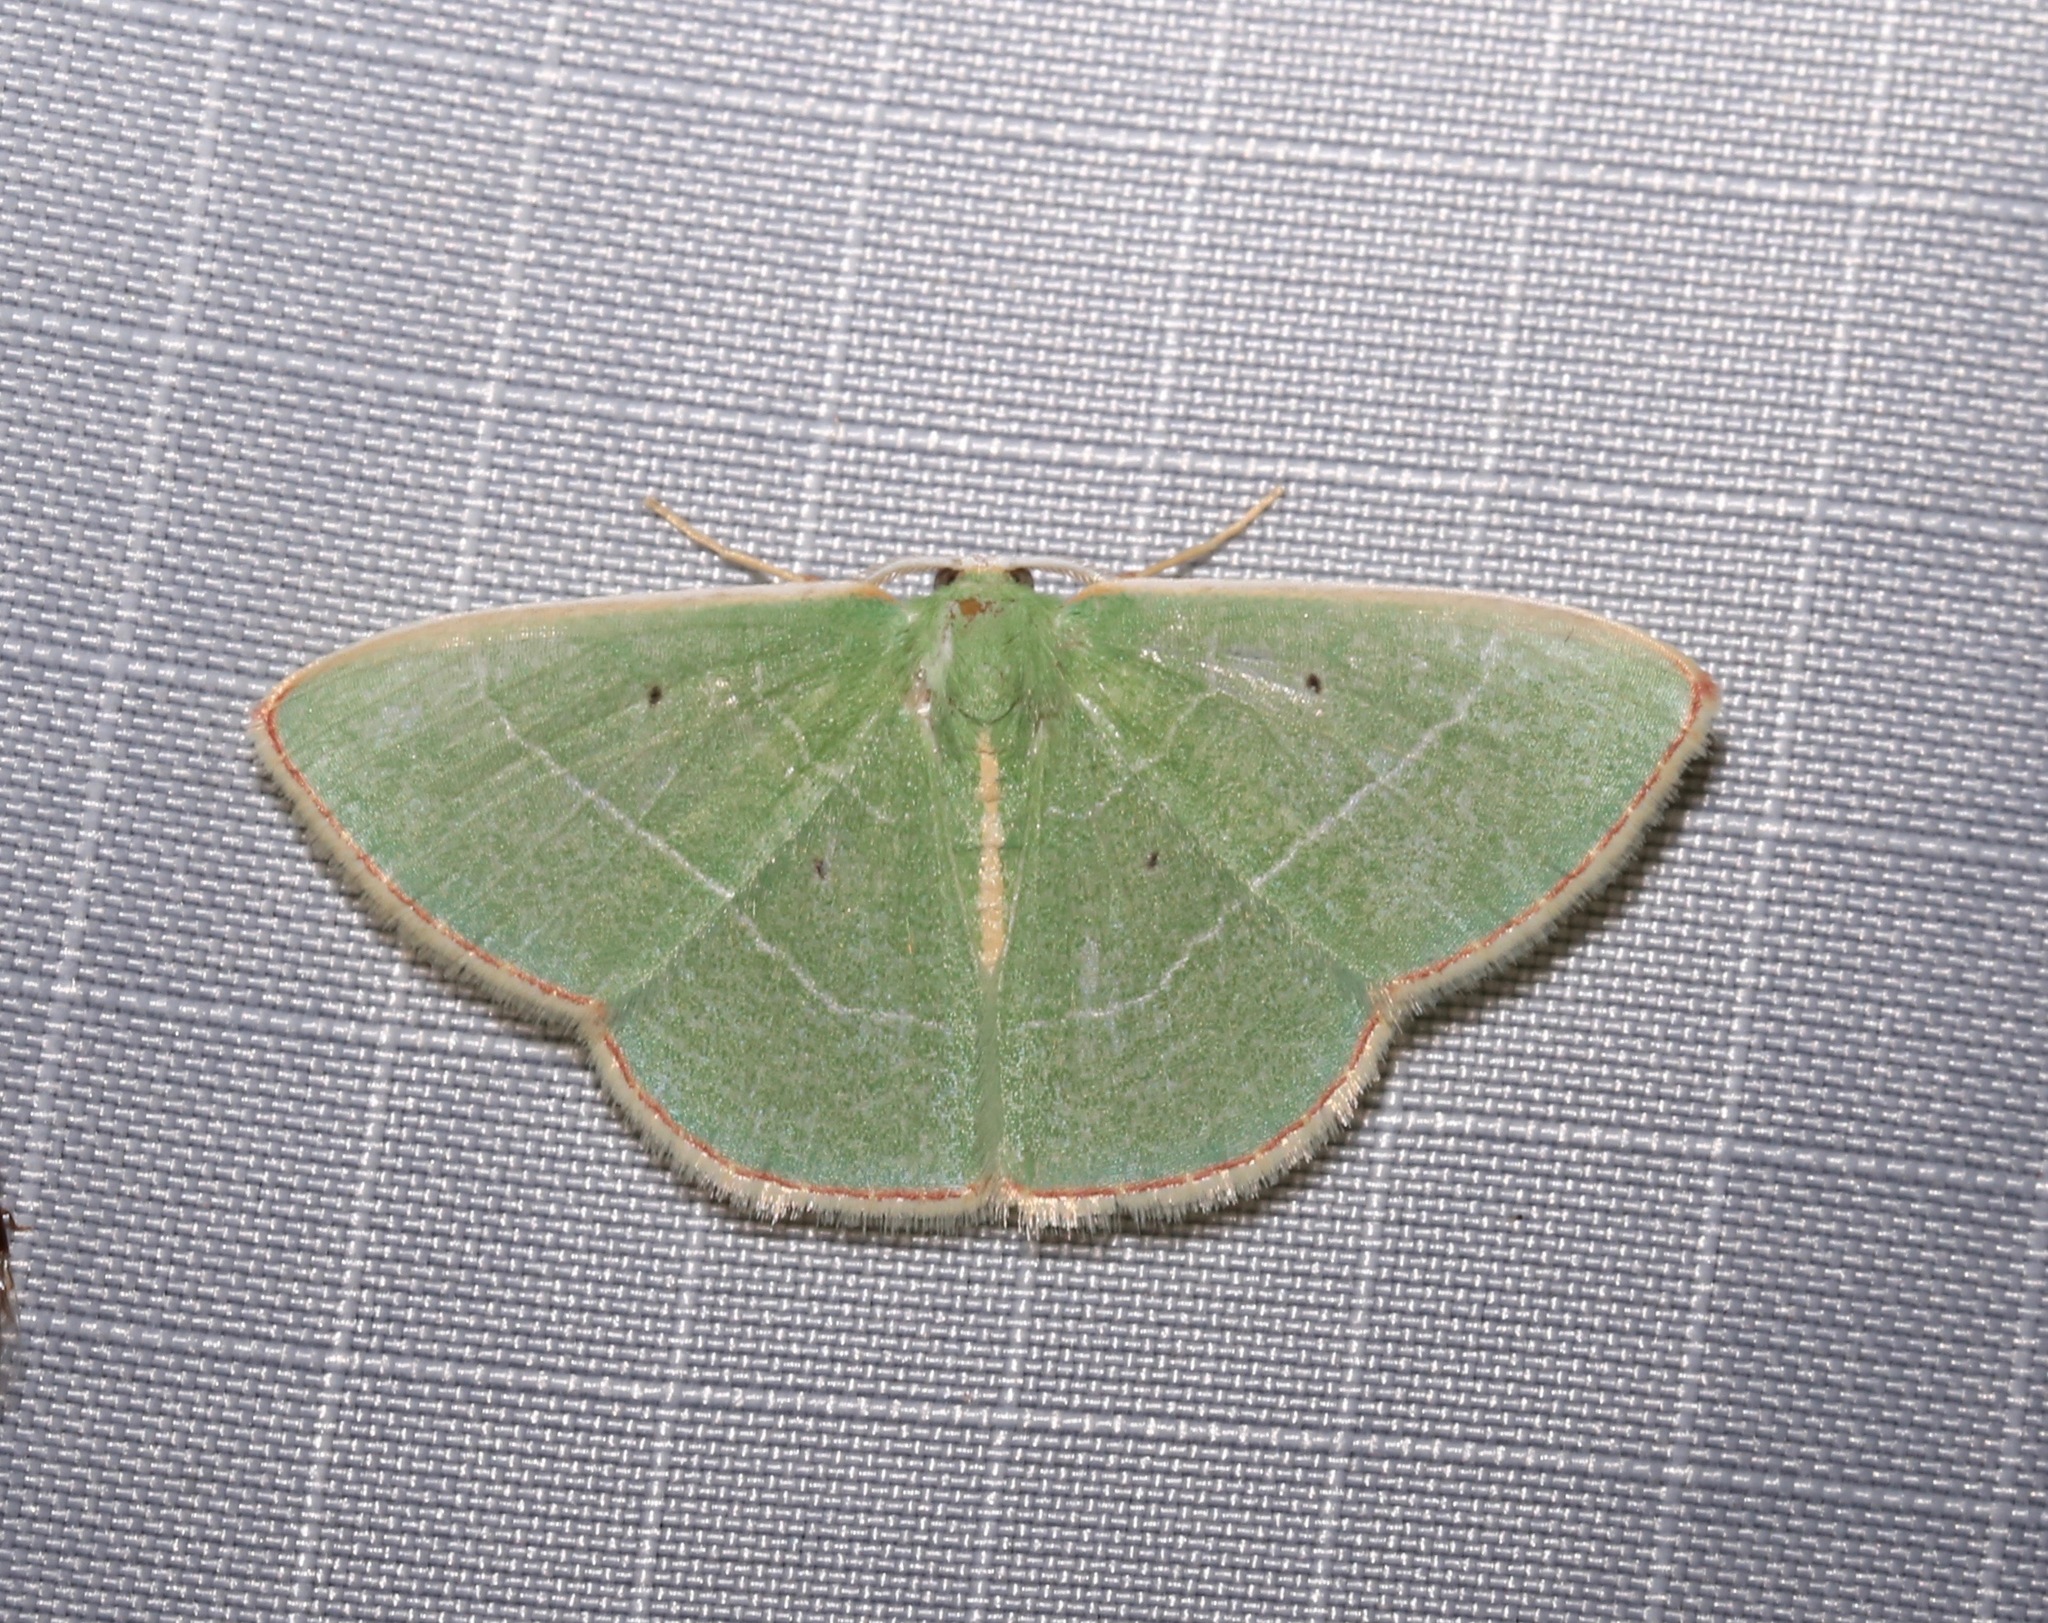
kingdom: Animalia
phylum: Arthropoda
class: Insecta
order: Lepidoptera
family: Geometridae
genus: Nemoria
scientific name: Nemoria bifilata
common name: White-barred emerald moth
